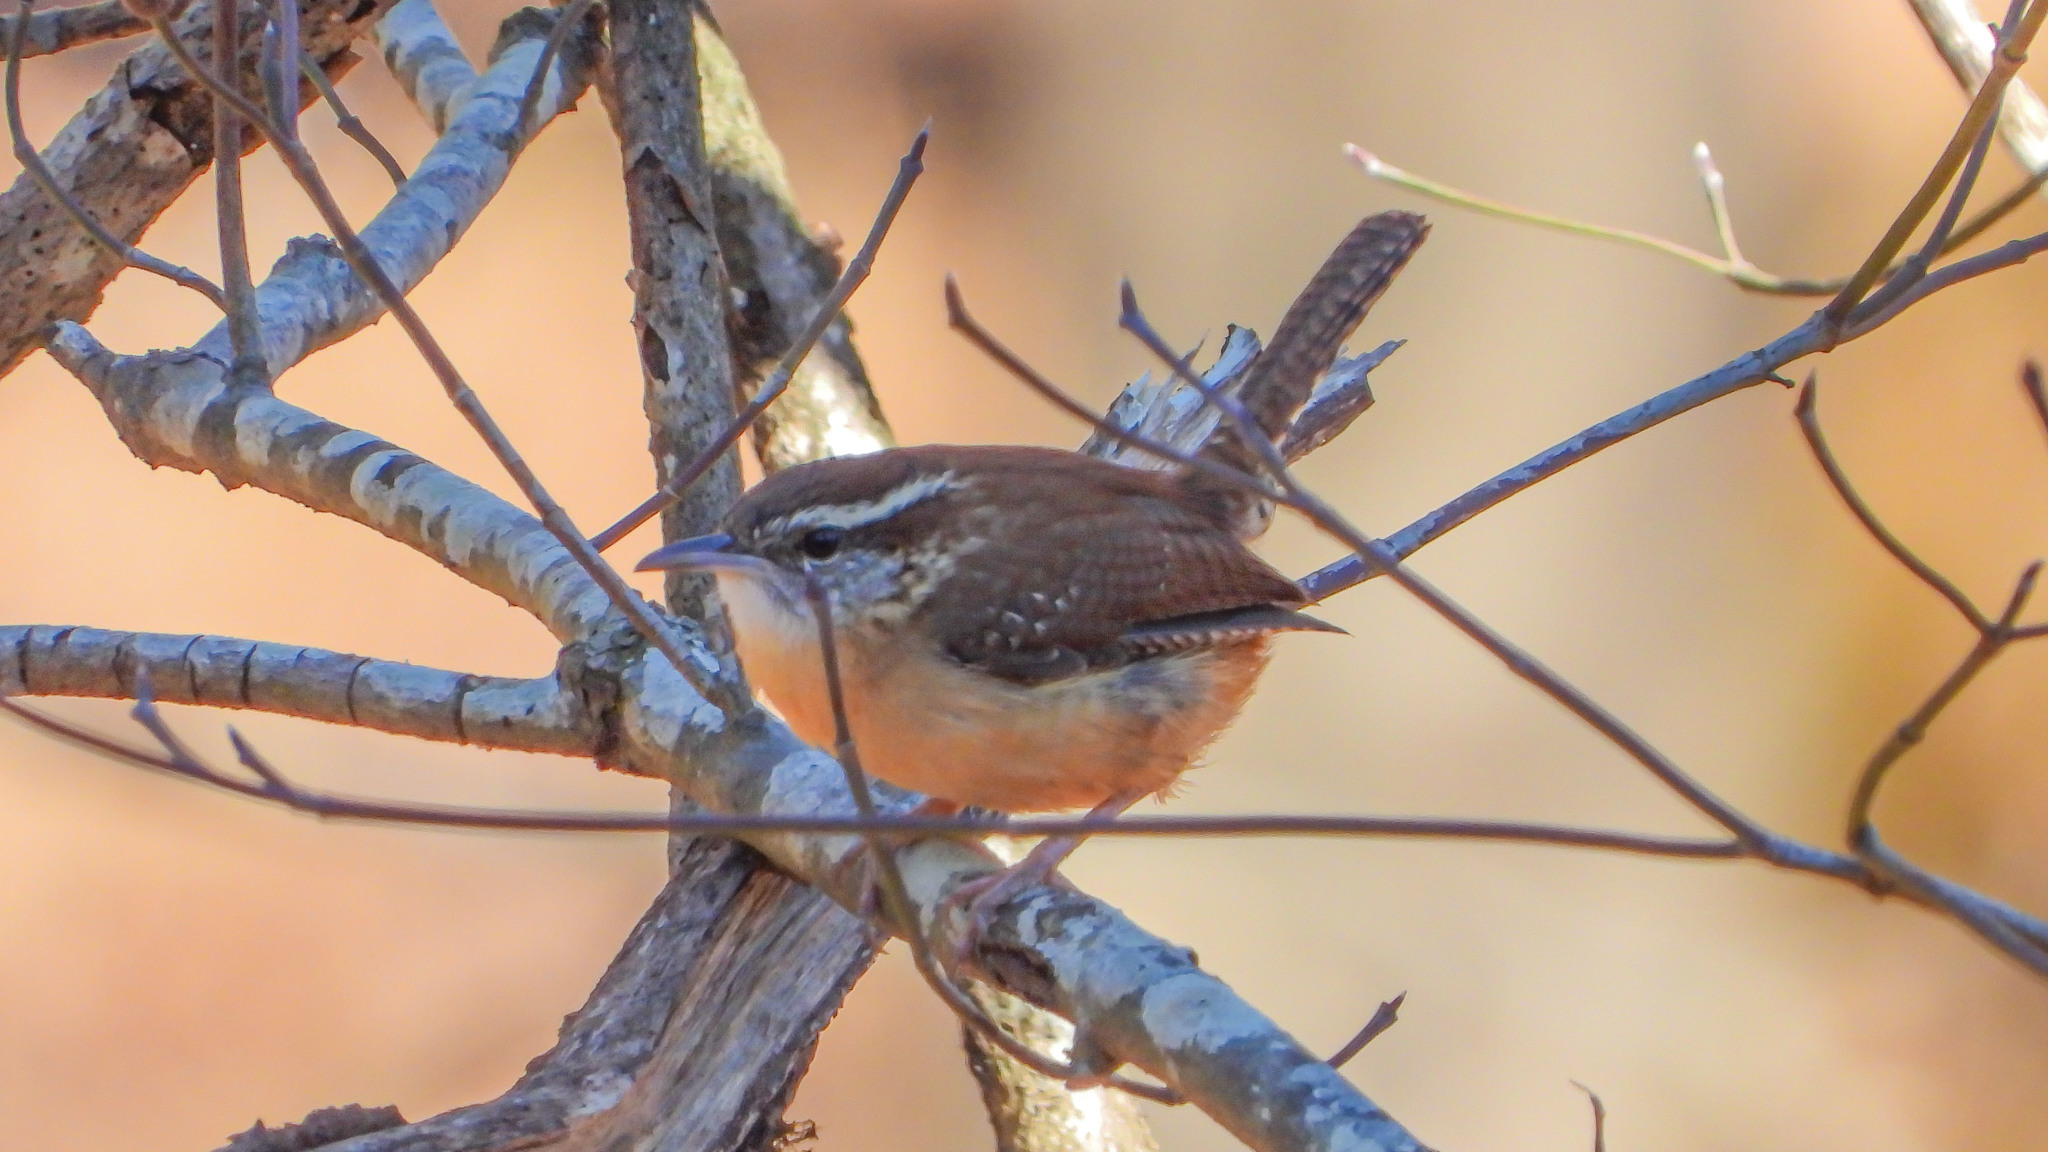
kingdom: Animalia
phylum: Chordata
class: Aves
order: Passeriformes
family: Troglodytidae
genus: Thryothorus
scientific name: Thryothorus ludovicianus
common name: Carolina wren
